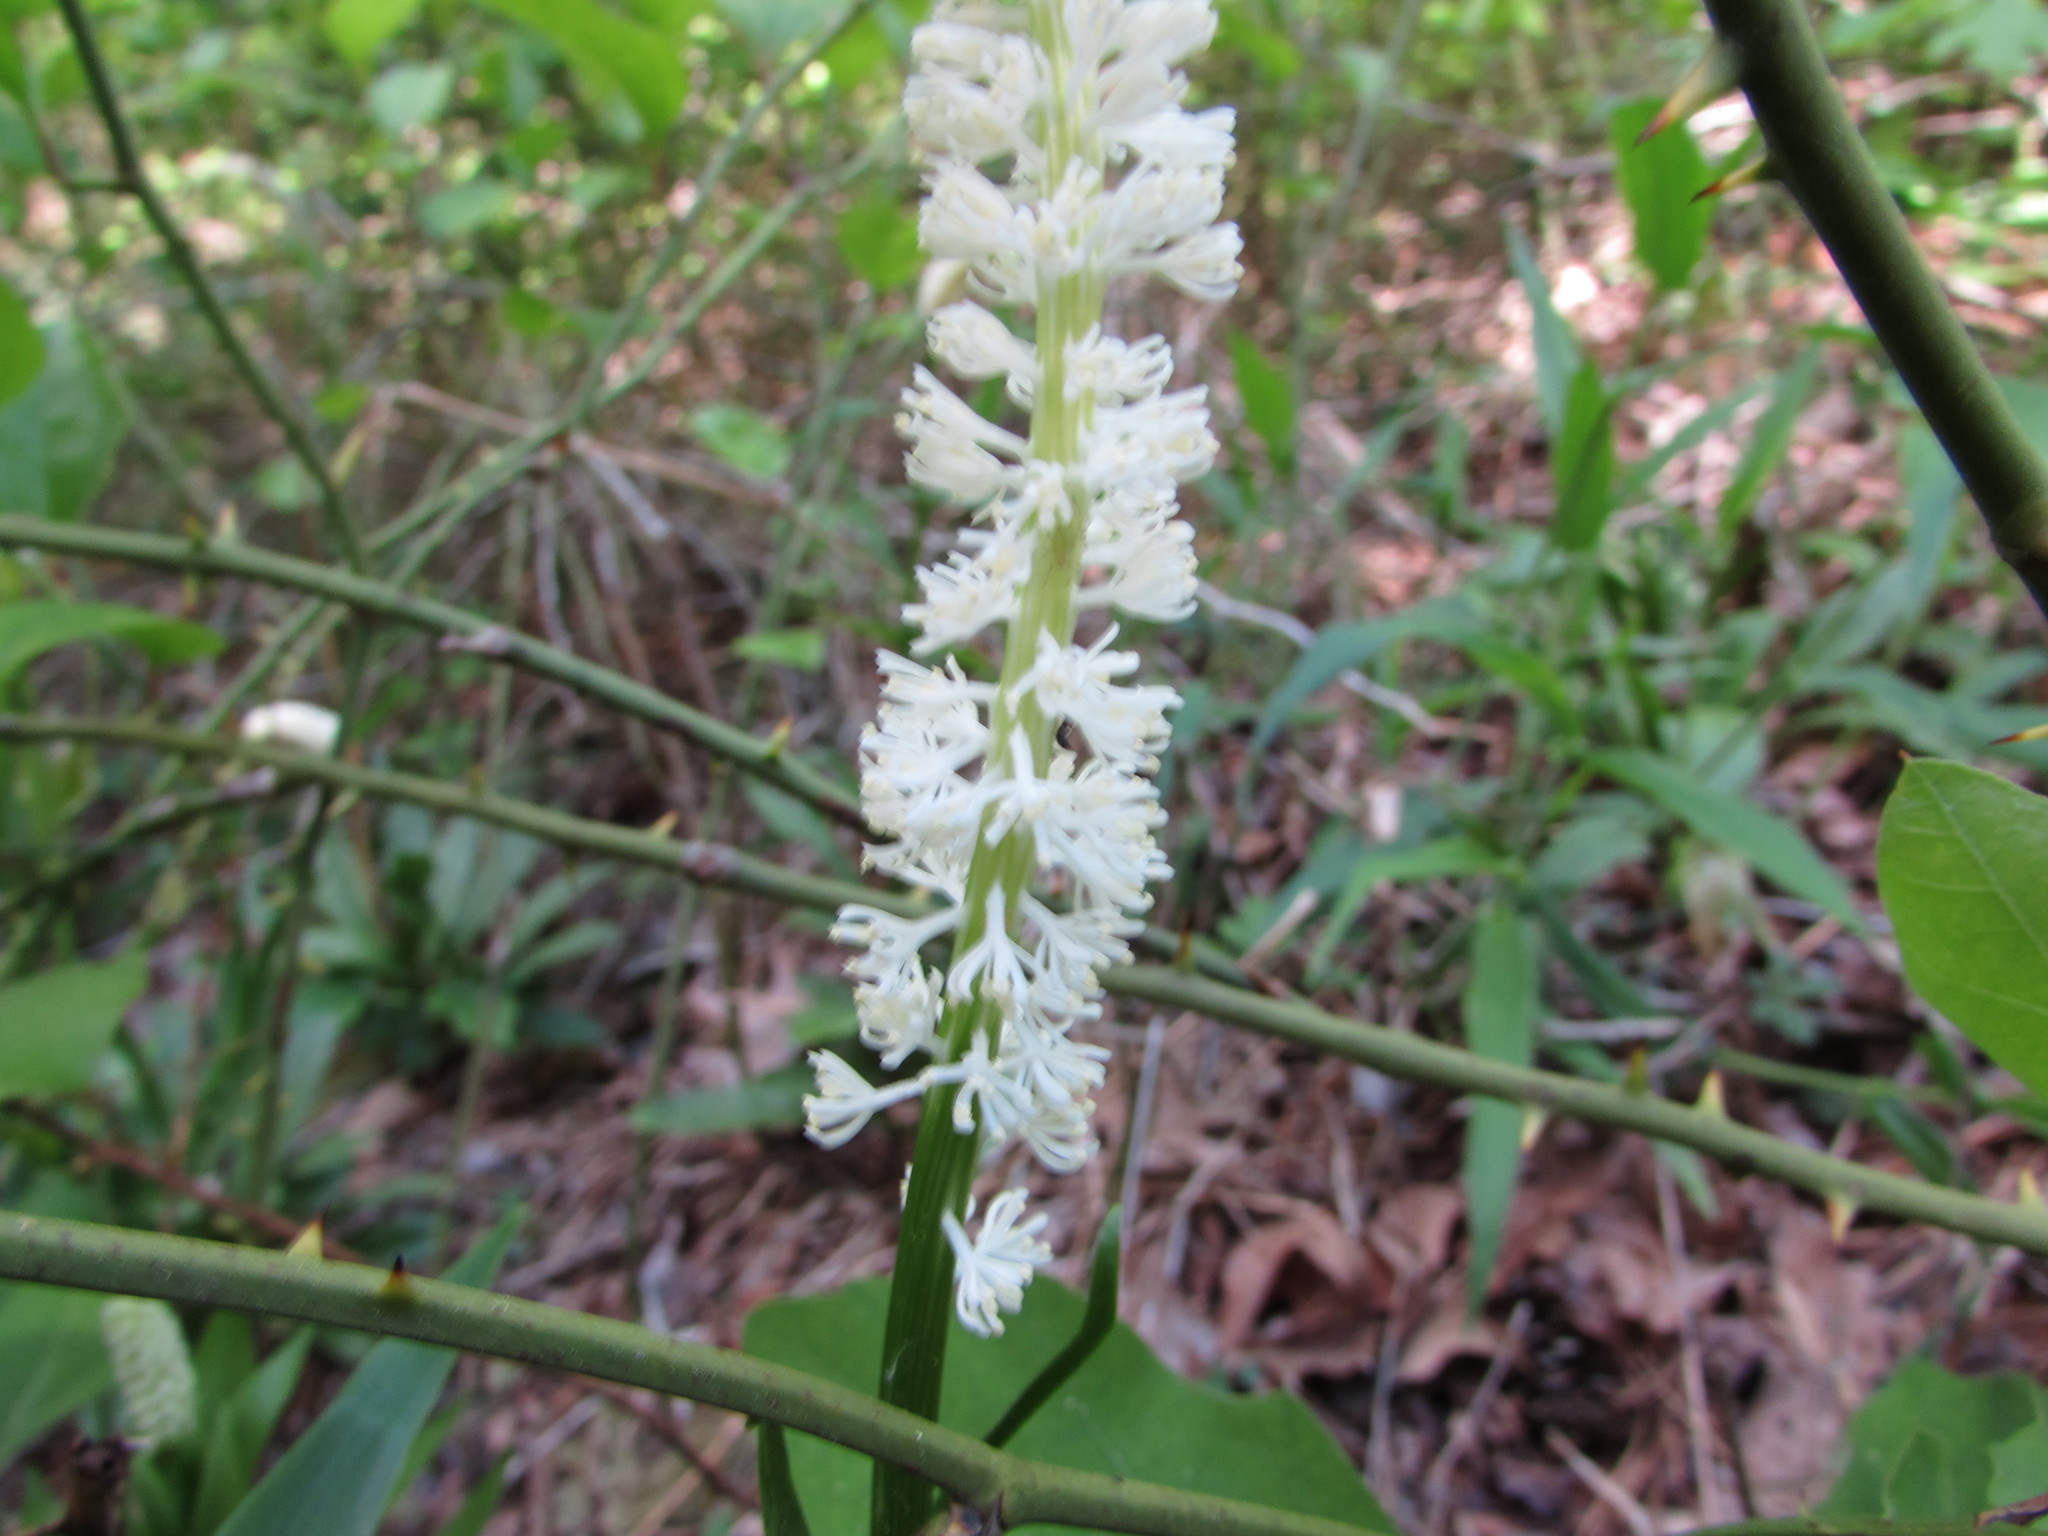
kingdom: Plantae
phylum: Tracheophyta
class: Liliopsida
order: Liliales
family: Melanthiaceae
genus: Chamaelirium
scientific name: Chamaelirium luteum
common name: Fairy-wand
